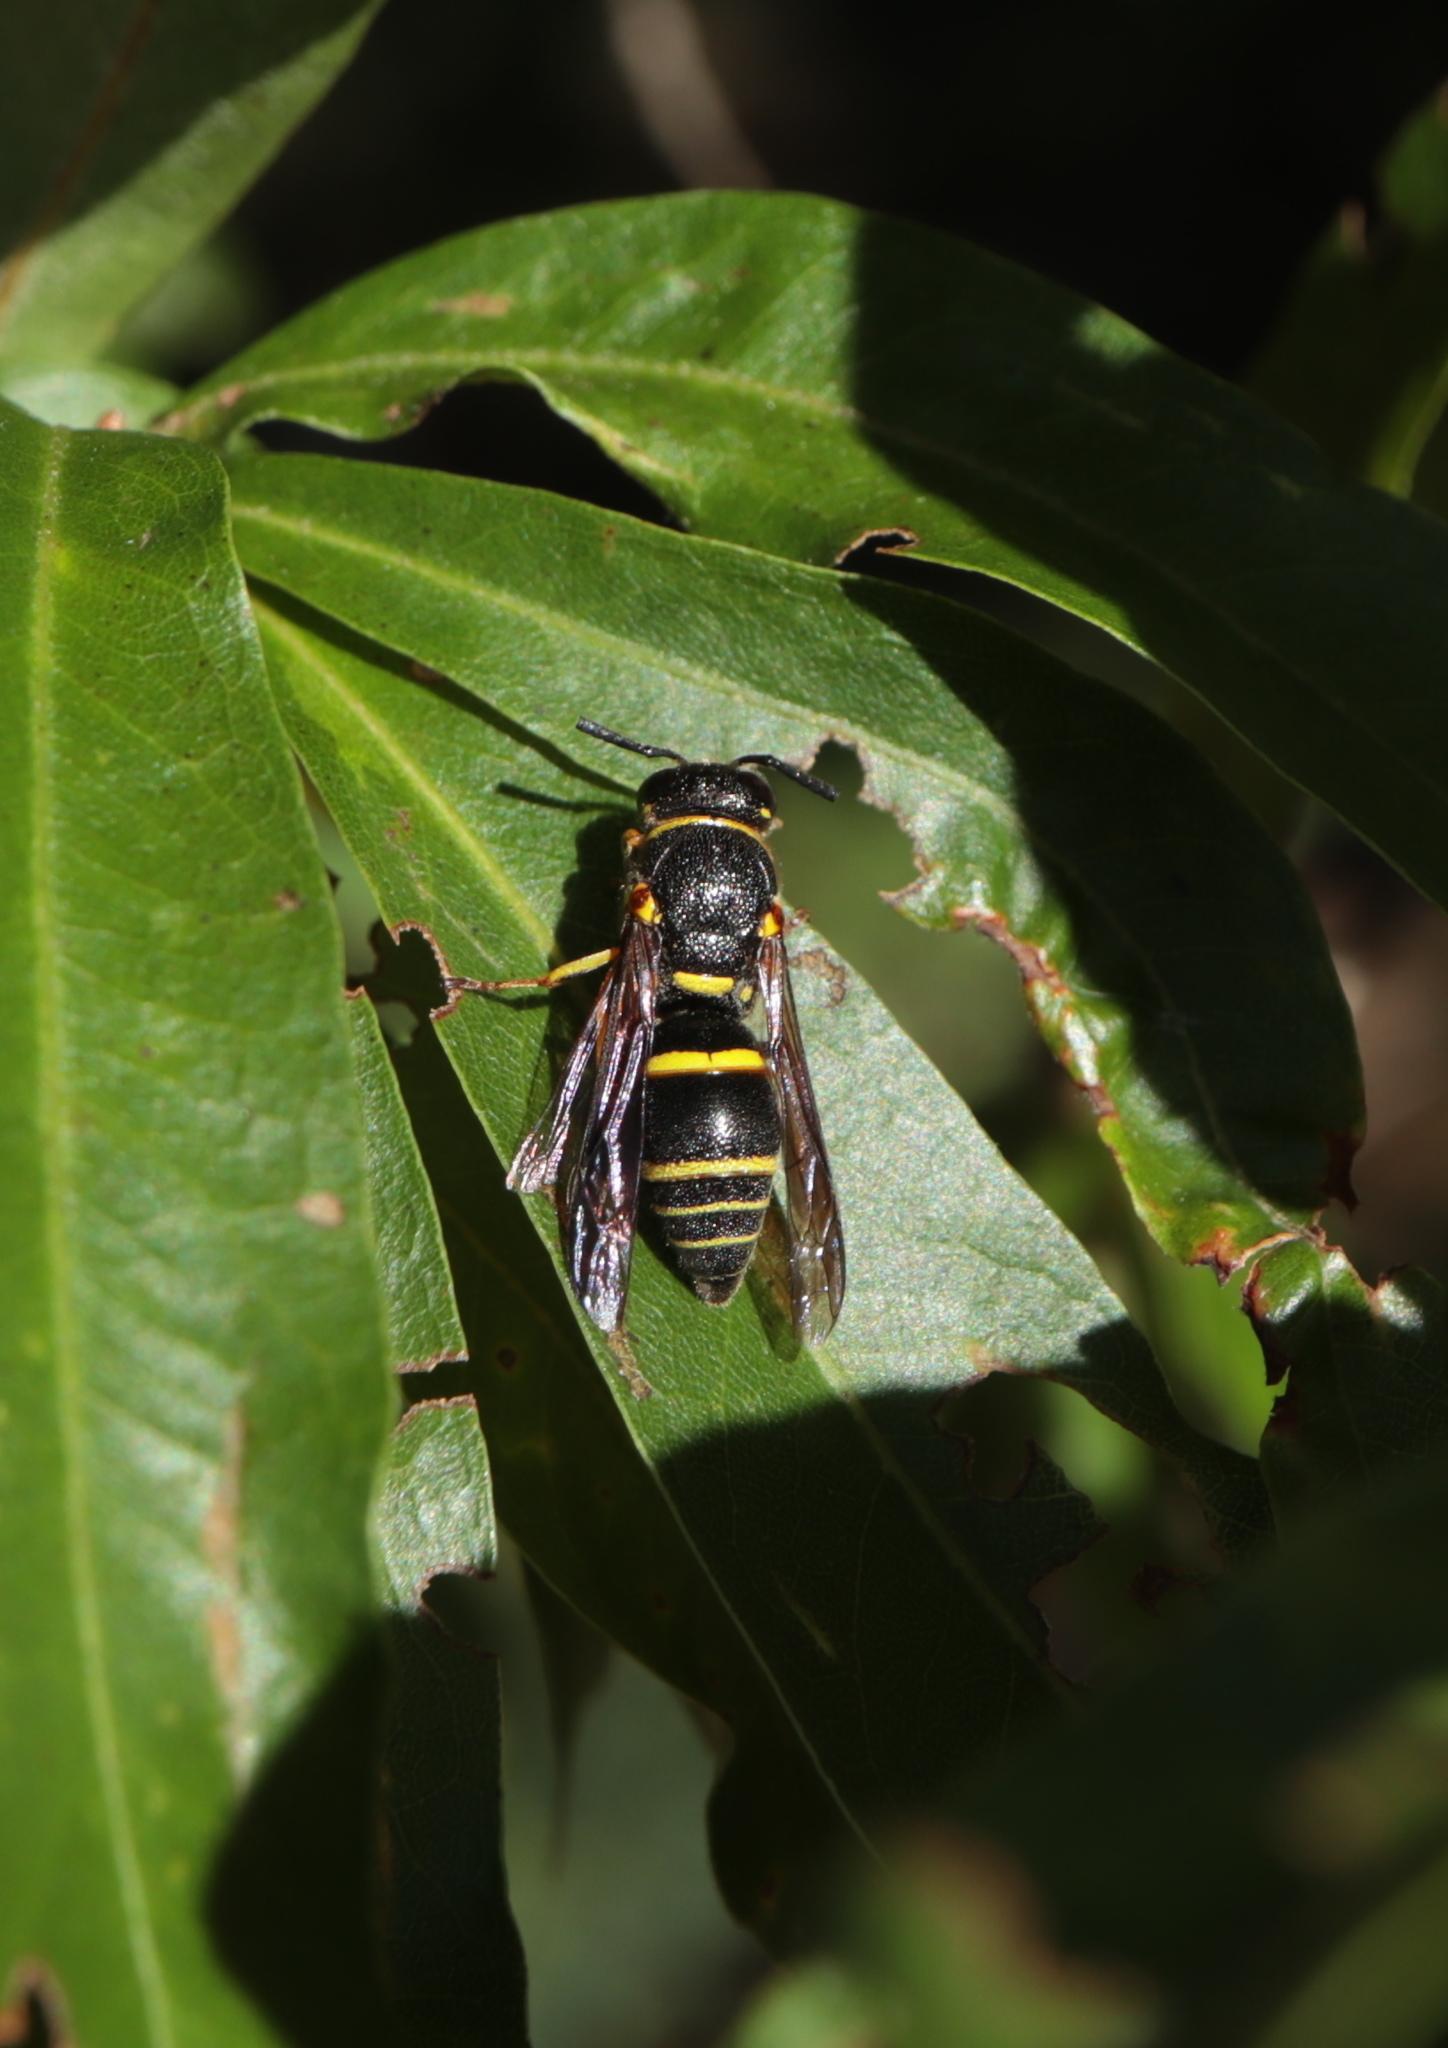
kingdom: Animalia
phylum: Arthropoda
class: Insecta
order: Hymenoptera
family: Eumenidae
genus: Euodynerus
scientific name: Euodynerus foraminatus
